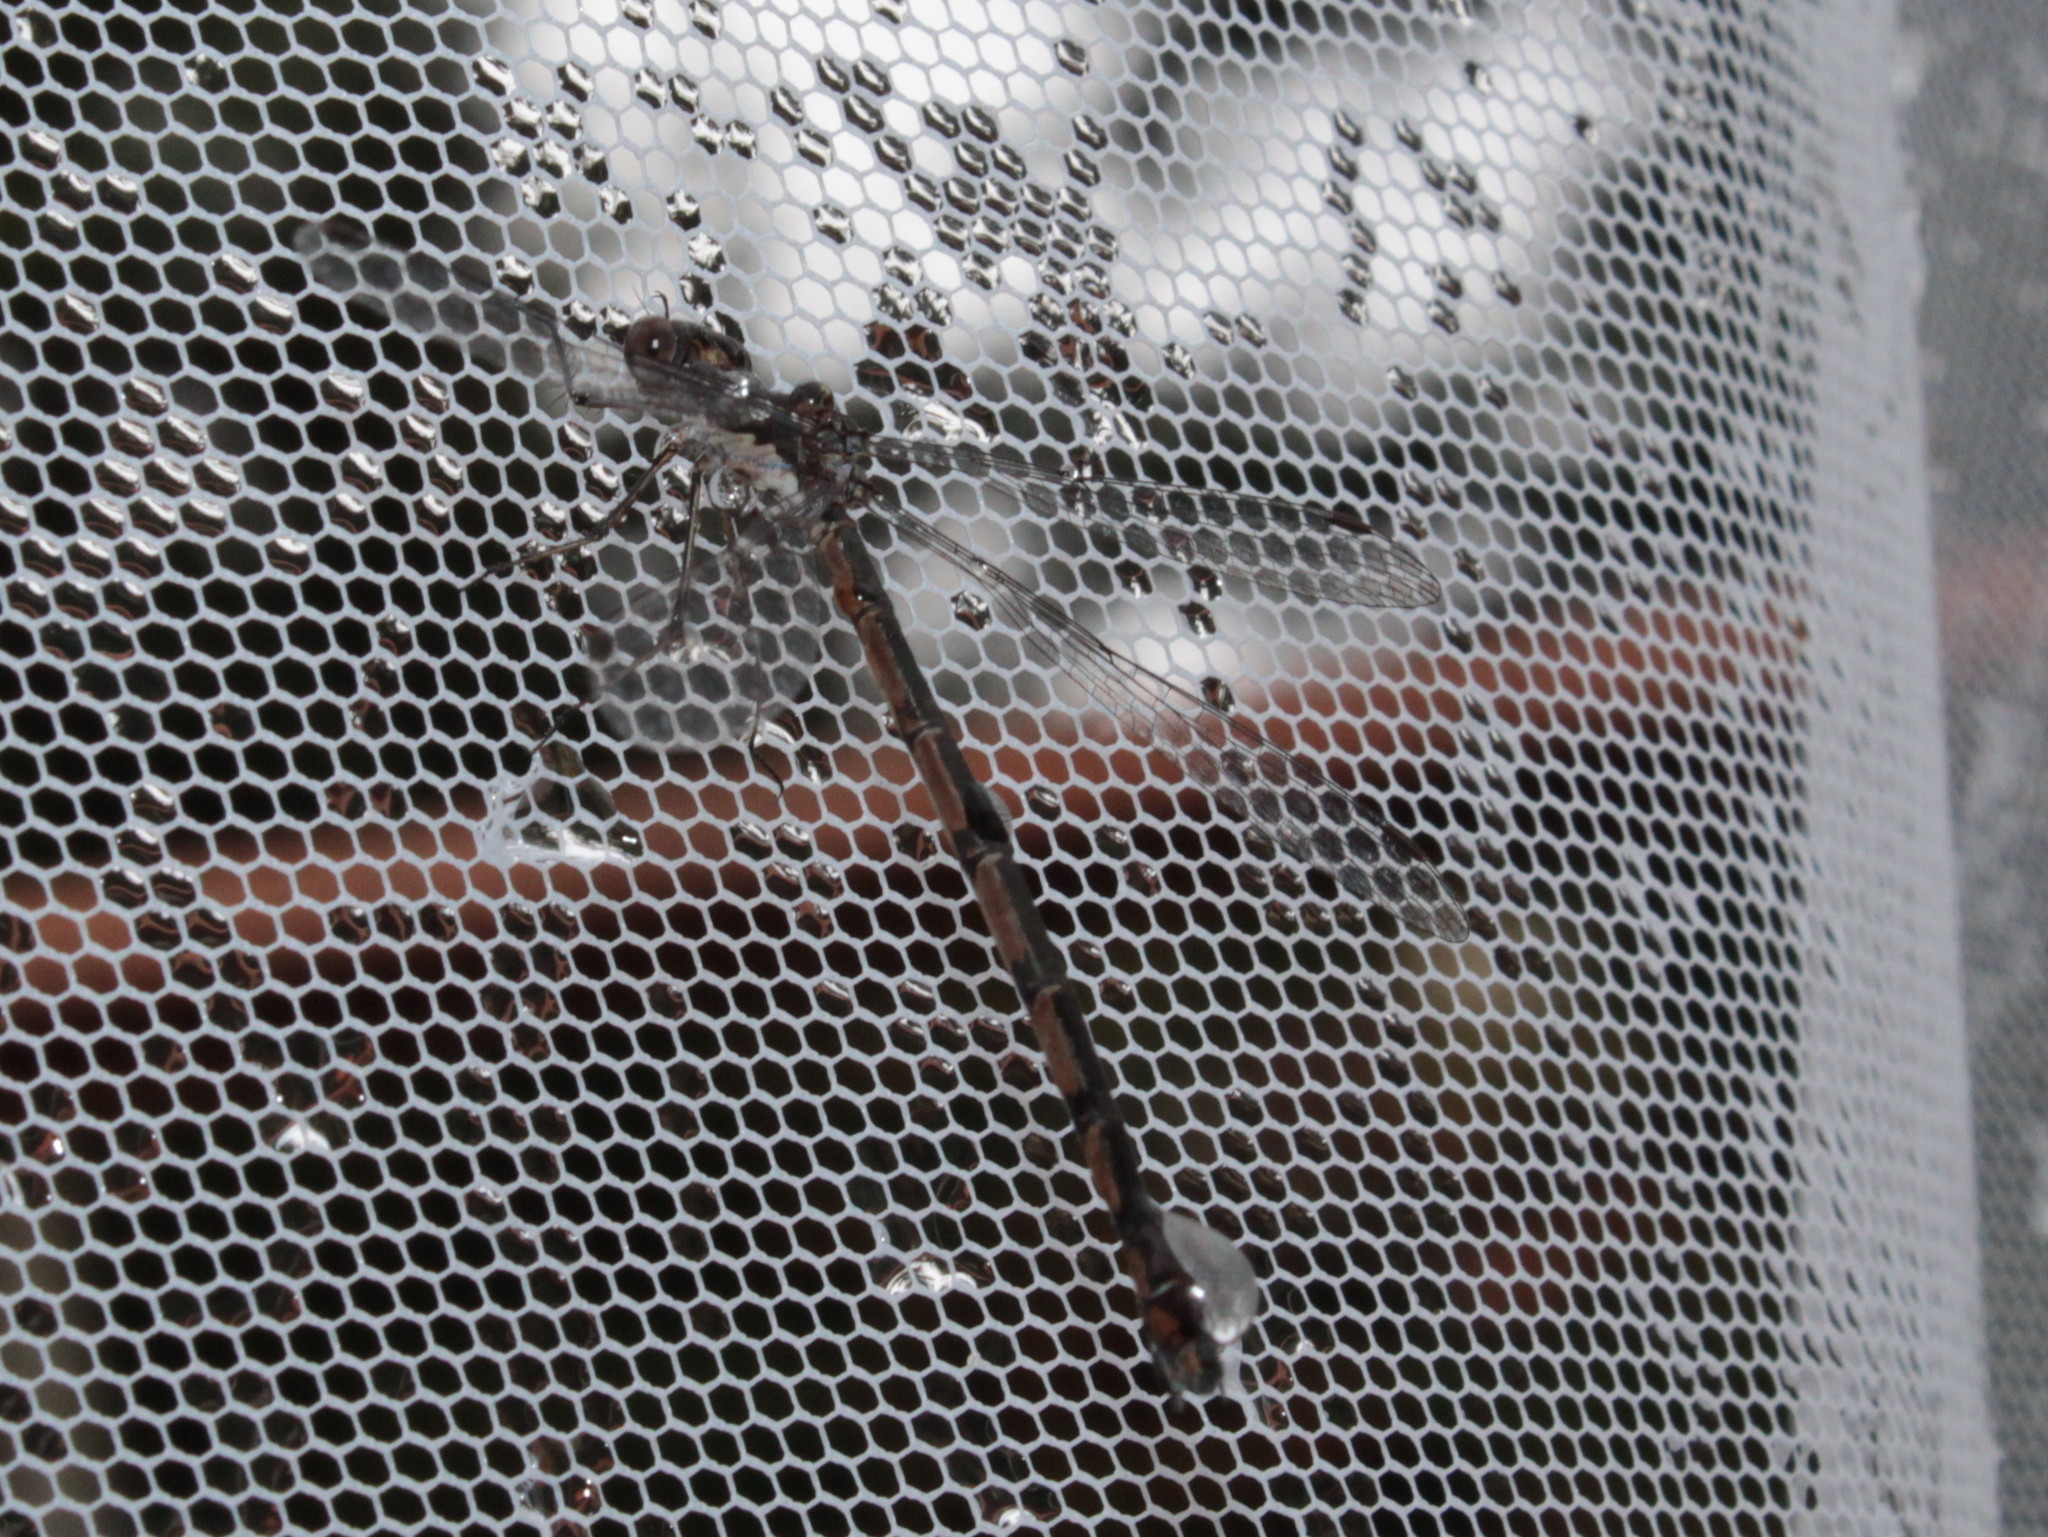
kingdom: Animalia
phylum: Arthropoda
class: Insecta
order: Odonata
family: Lestidae
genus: Lestes
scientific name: Lestes congener
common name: Spotted spreadwing
